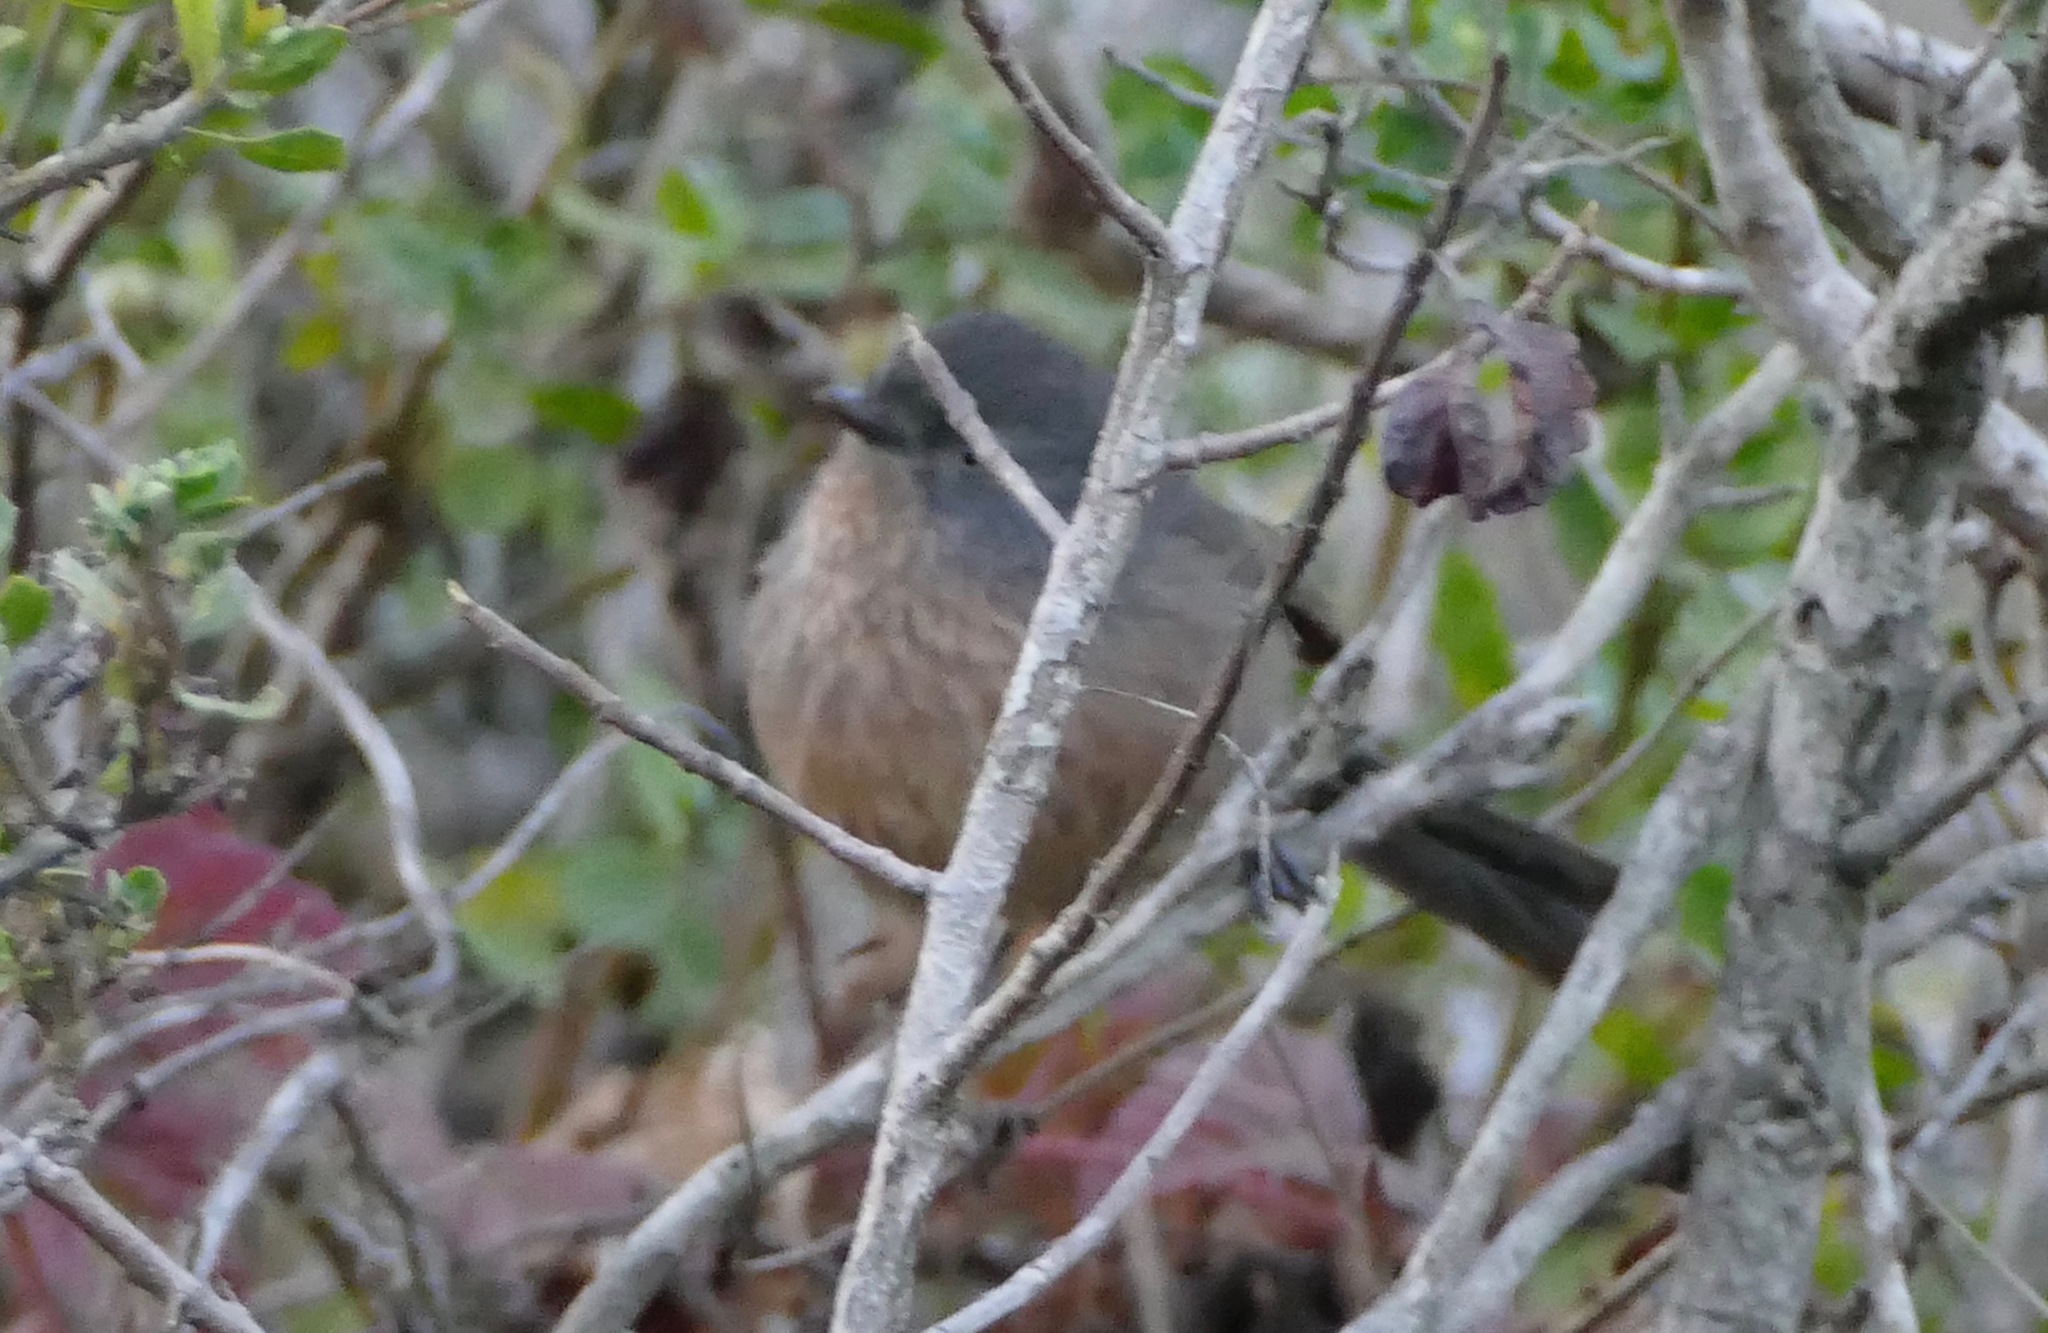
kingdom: Animalia
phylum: Chordata
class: Aves
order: Passeriformes
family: Sylviidae
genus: Chamaea
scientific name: Chamaea fasciata
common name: Wrentit
